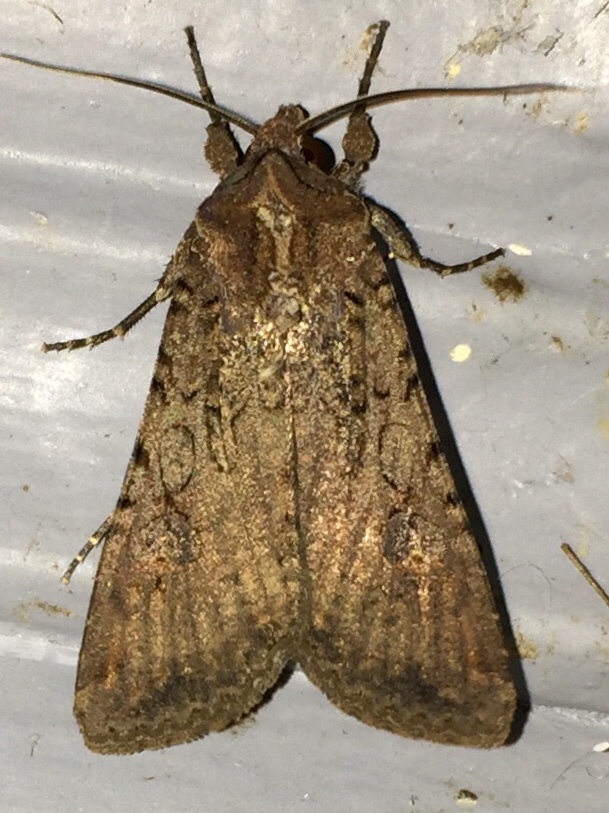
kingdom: Animalia
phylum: Arthropoda
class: Insecta
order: Lepidoptera
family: Noctuidae
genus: Peridroma
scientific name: Peridroma saucia
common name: Pearly underwing
